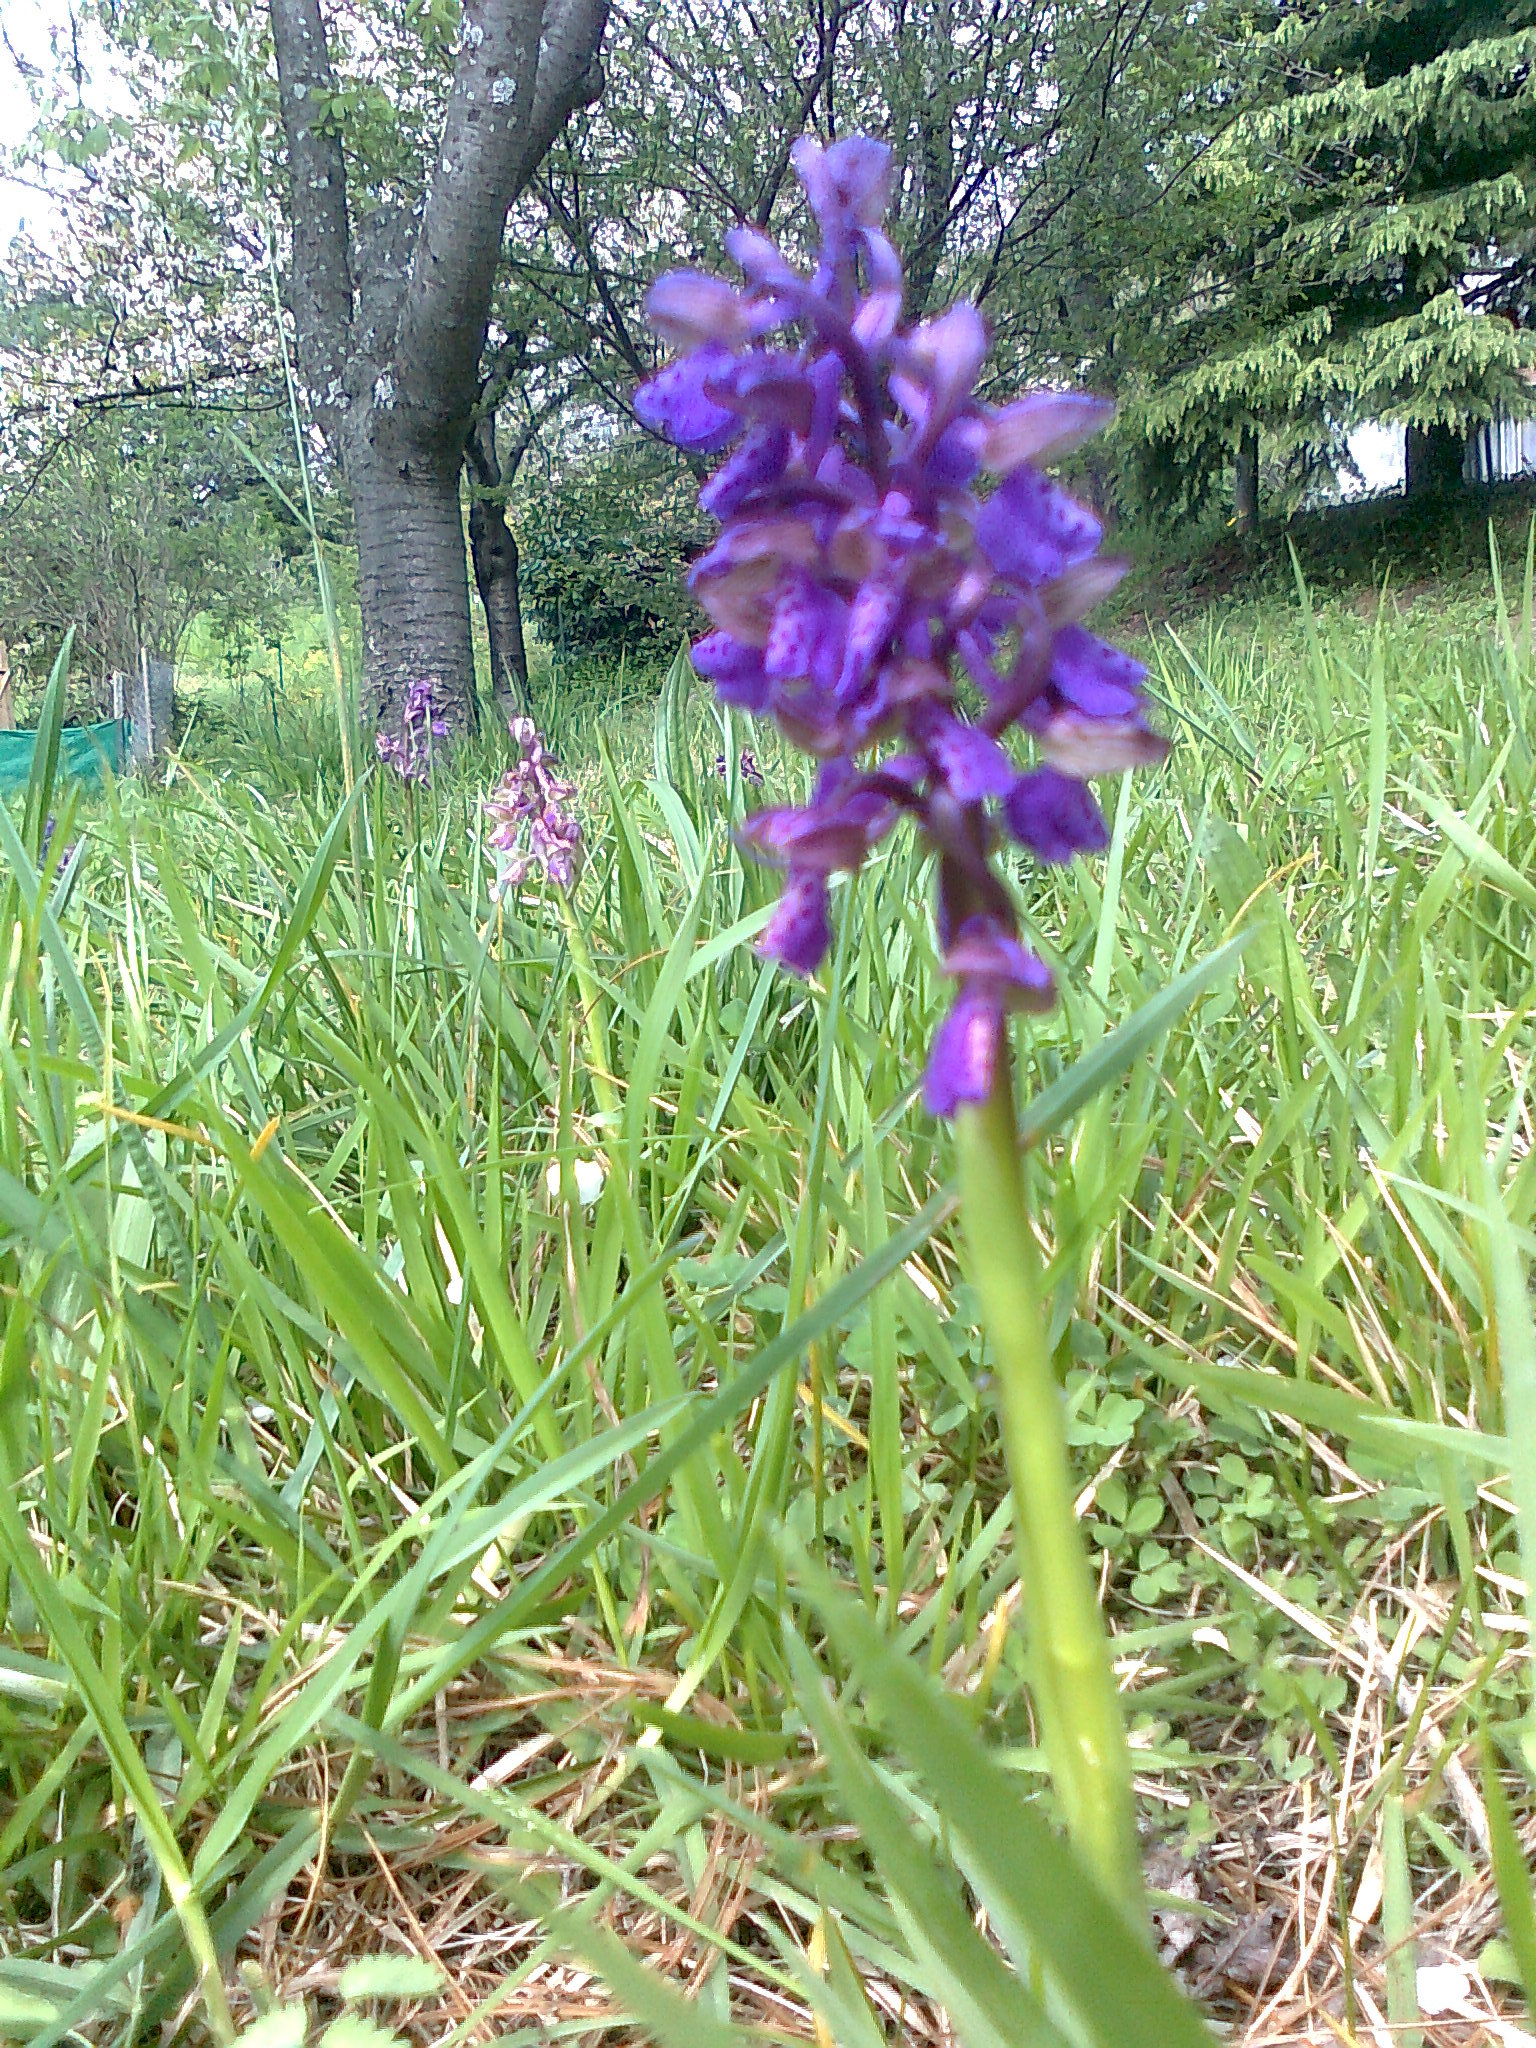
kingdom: Plantae
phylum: Tracheophyta
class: Liliopsida
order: Asparagales
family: Orchidaceae
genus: Anacamptis
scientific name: Anacamptis morio
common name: Green-winged orchid
